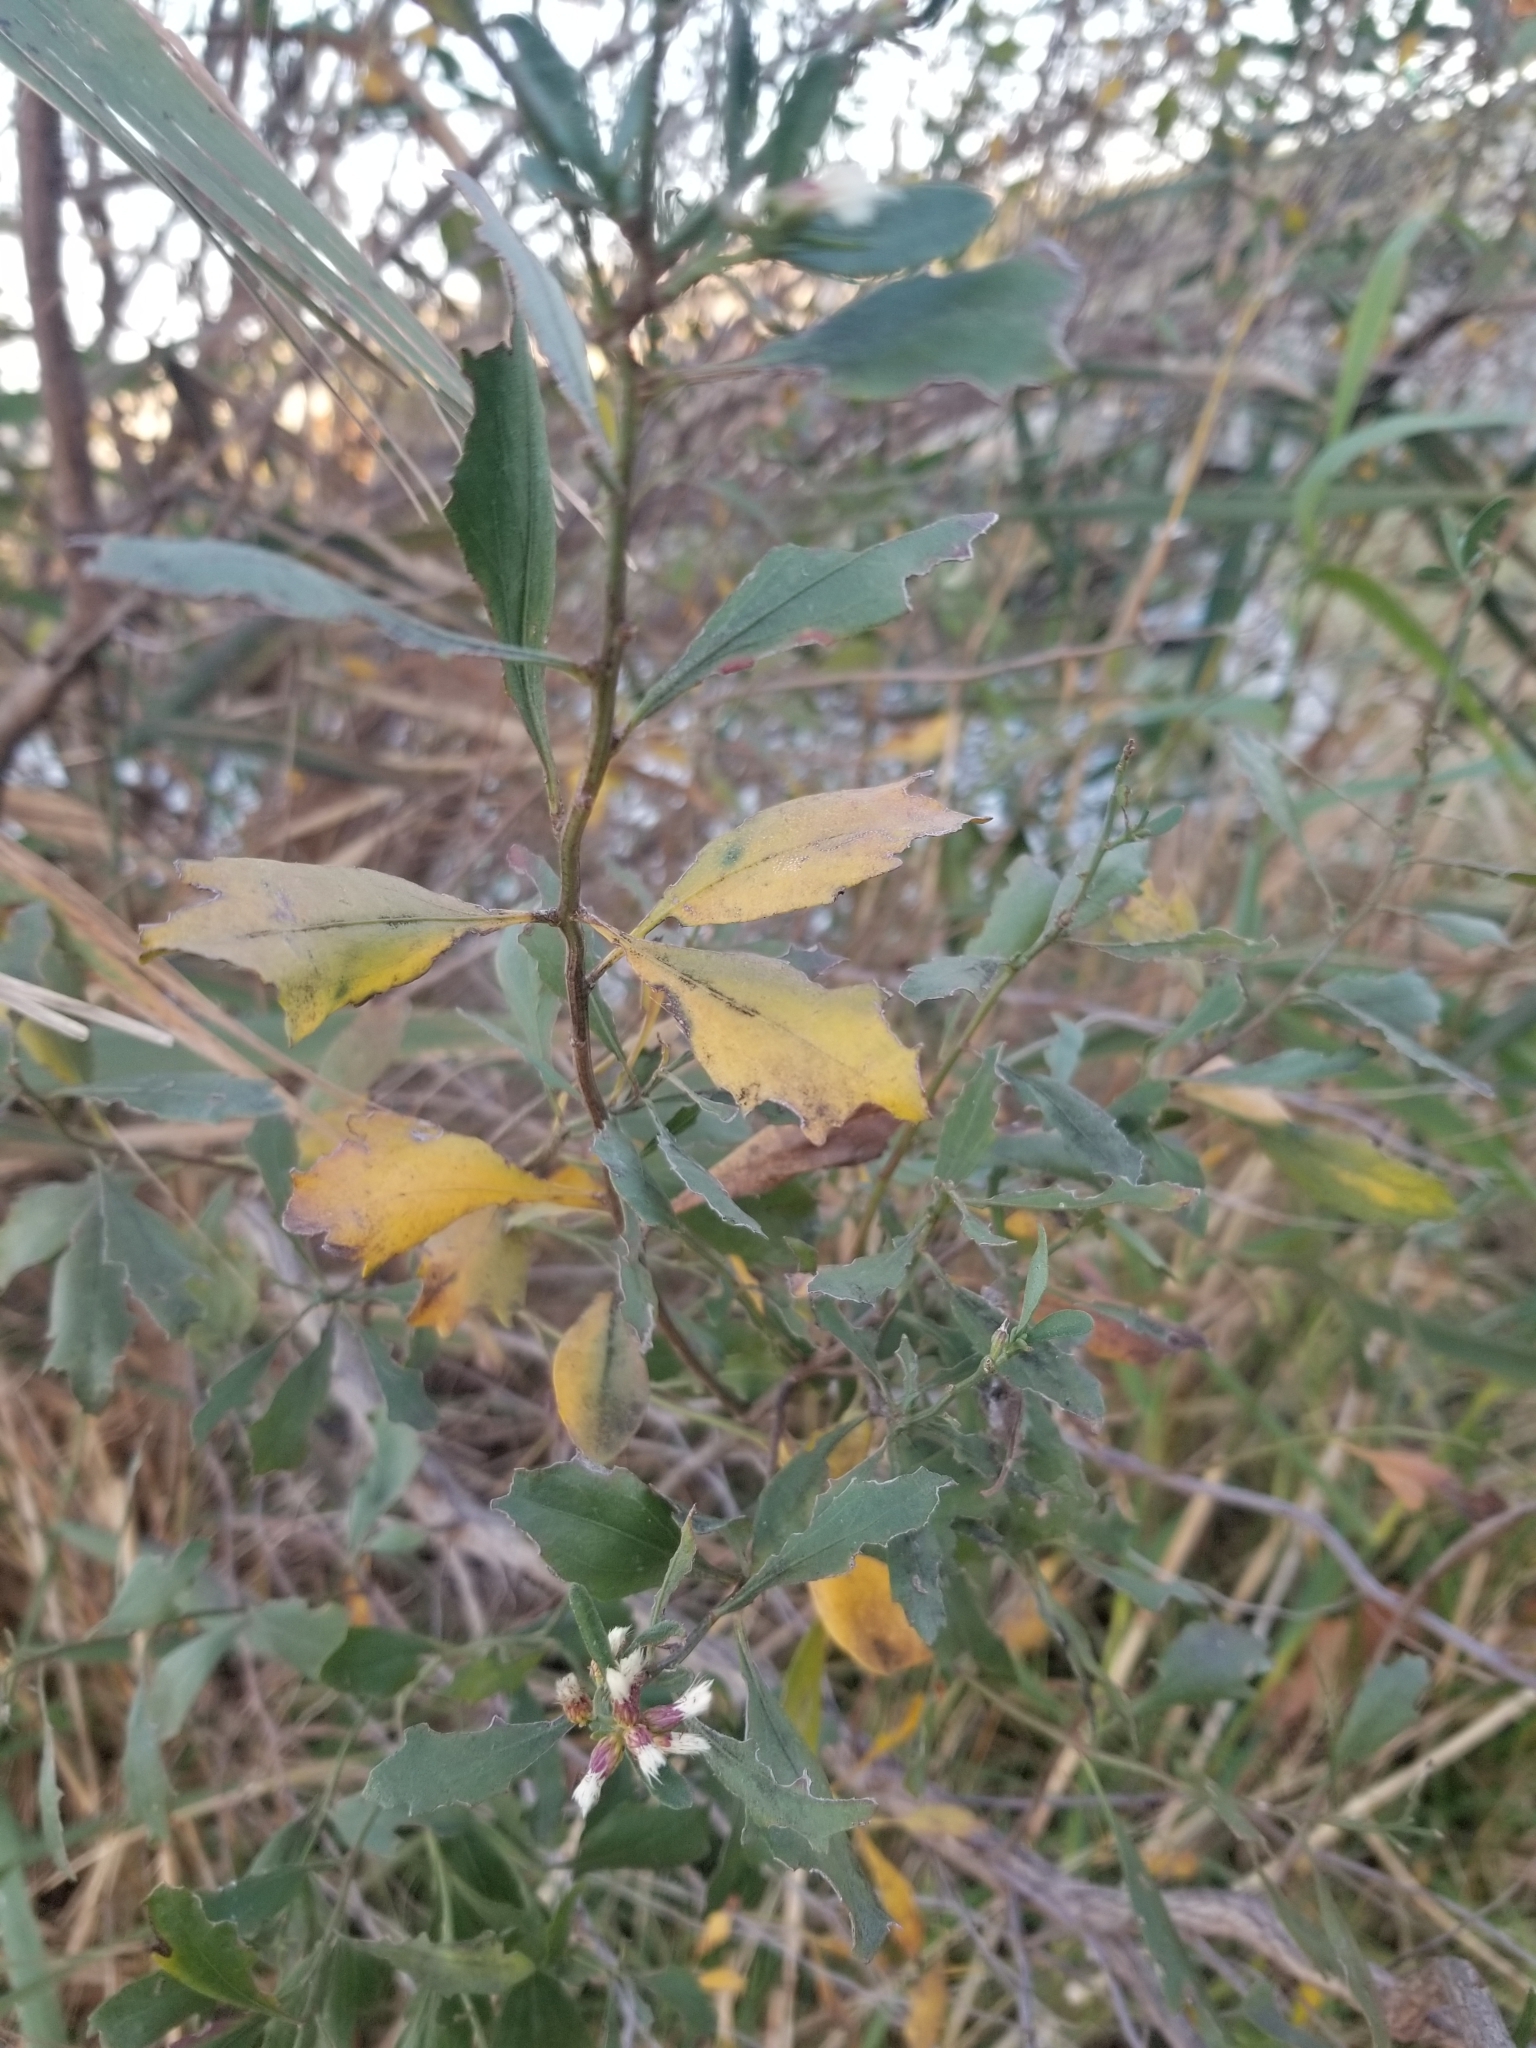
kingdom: Plantae
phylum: Tracheophyta
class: Magnoliopsida
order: Asterales
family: Asteraceae
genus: Baccharis
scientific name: Baccharis halimifolia
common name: Eastern baccharis
